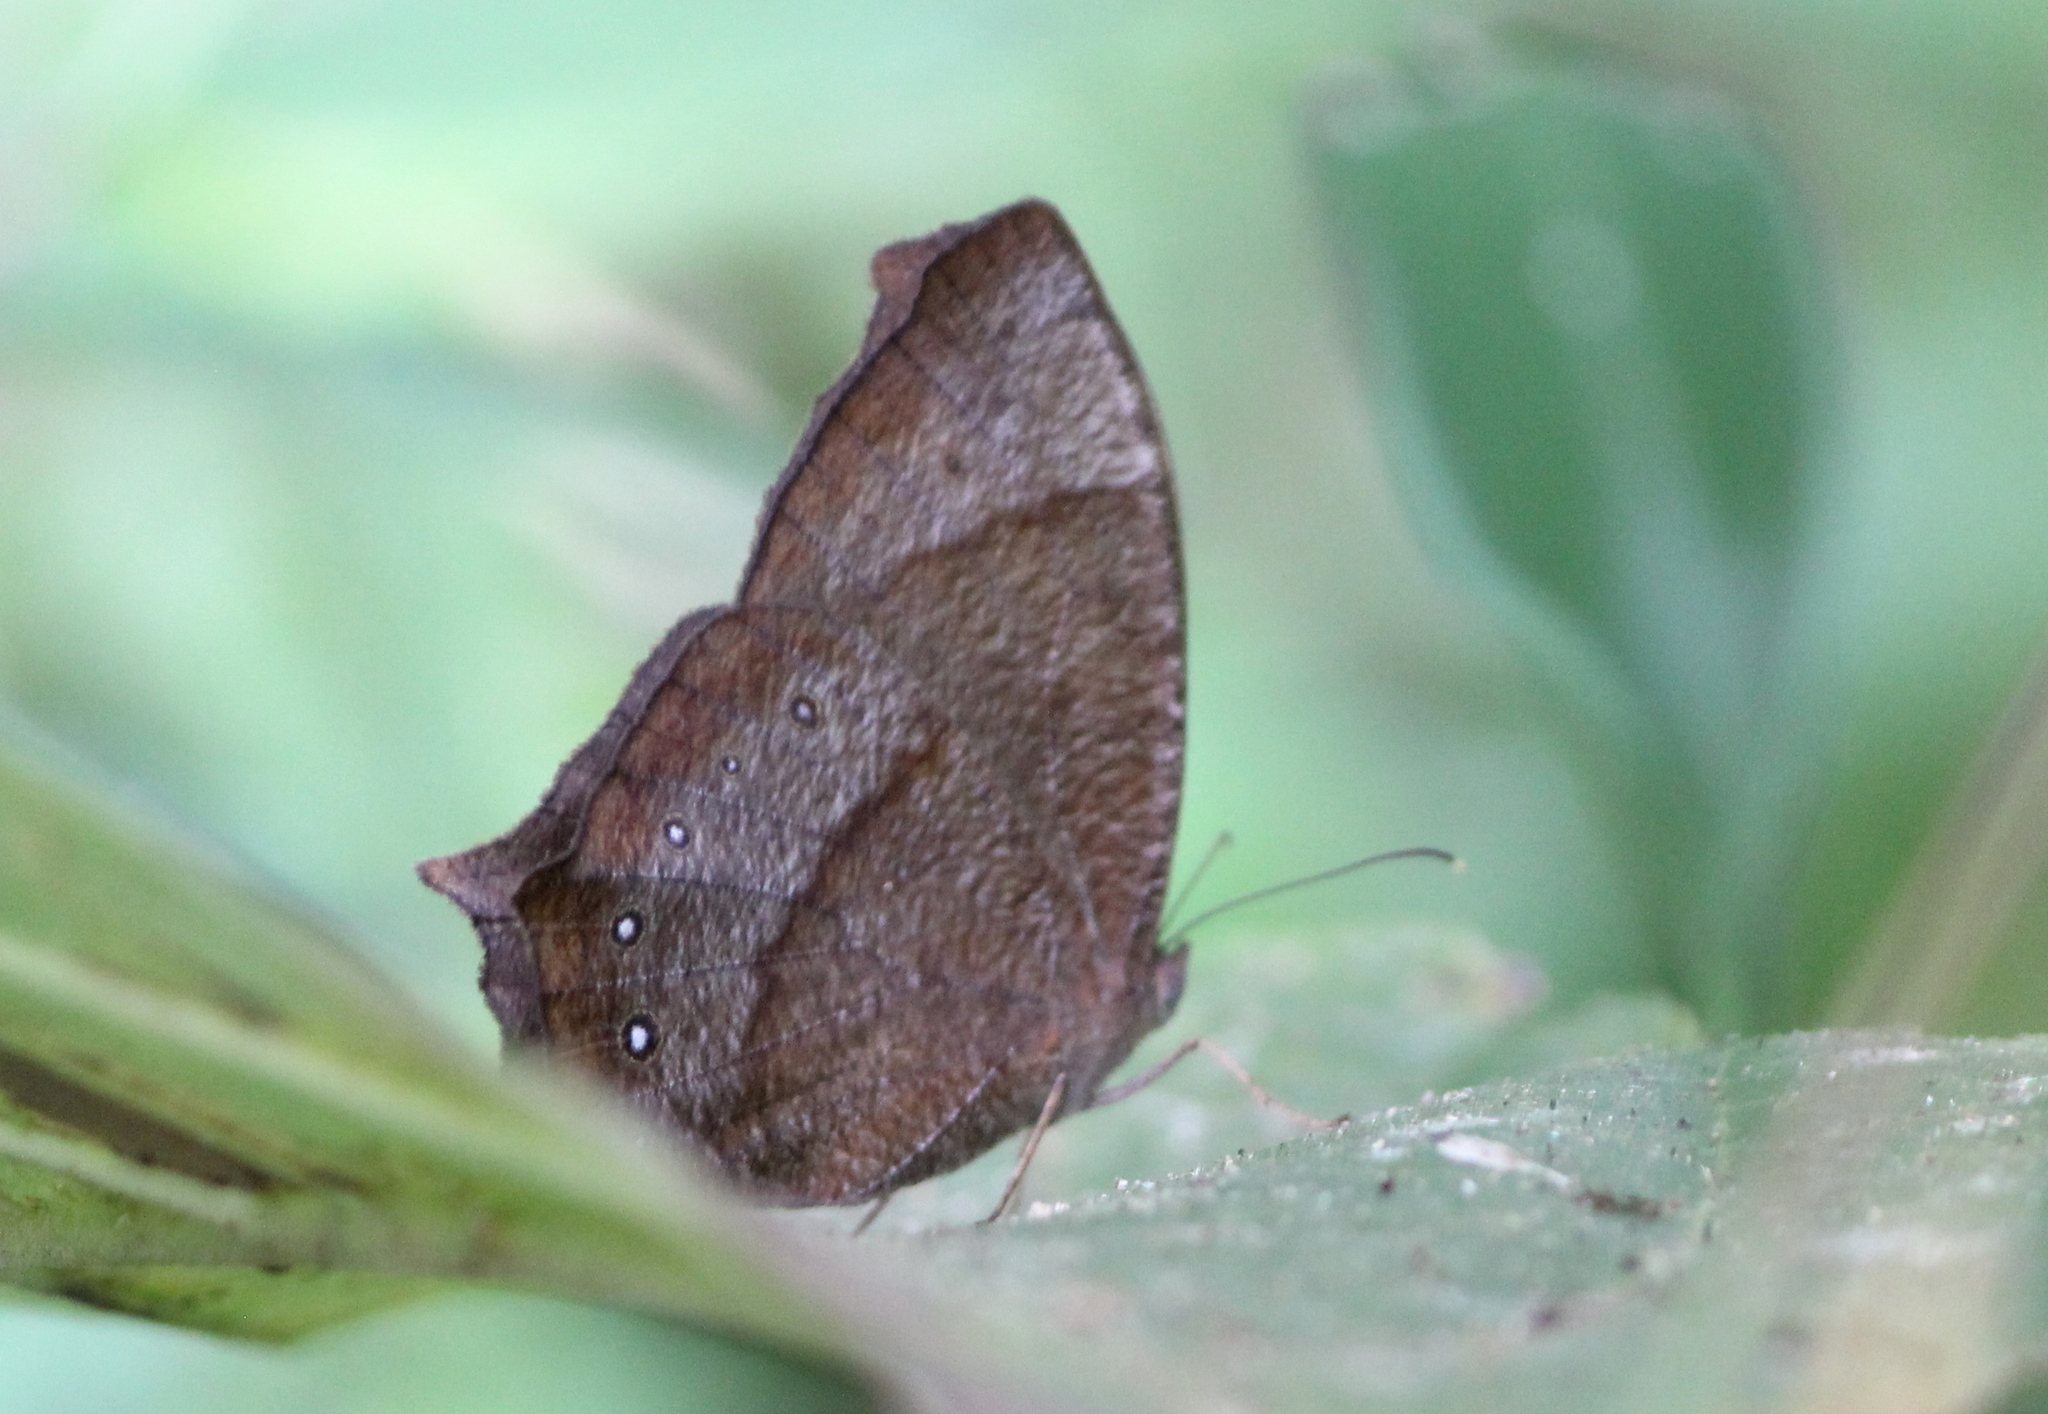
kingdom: Animalia
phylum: Arthropoda
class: Insecta
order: Lepidoptera
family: Nymphalidae
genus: Melanitis
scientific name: Melanitis phedima
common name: Dark evening brown
